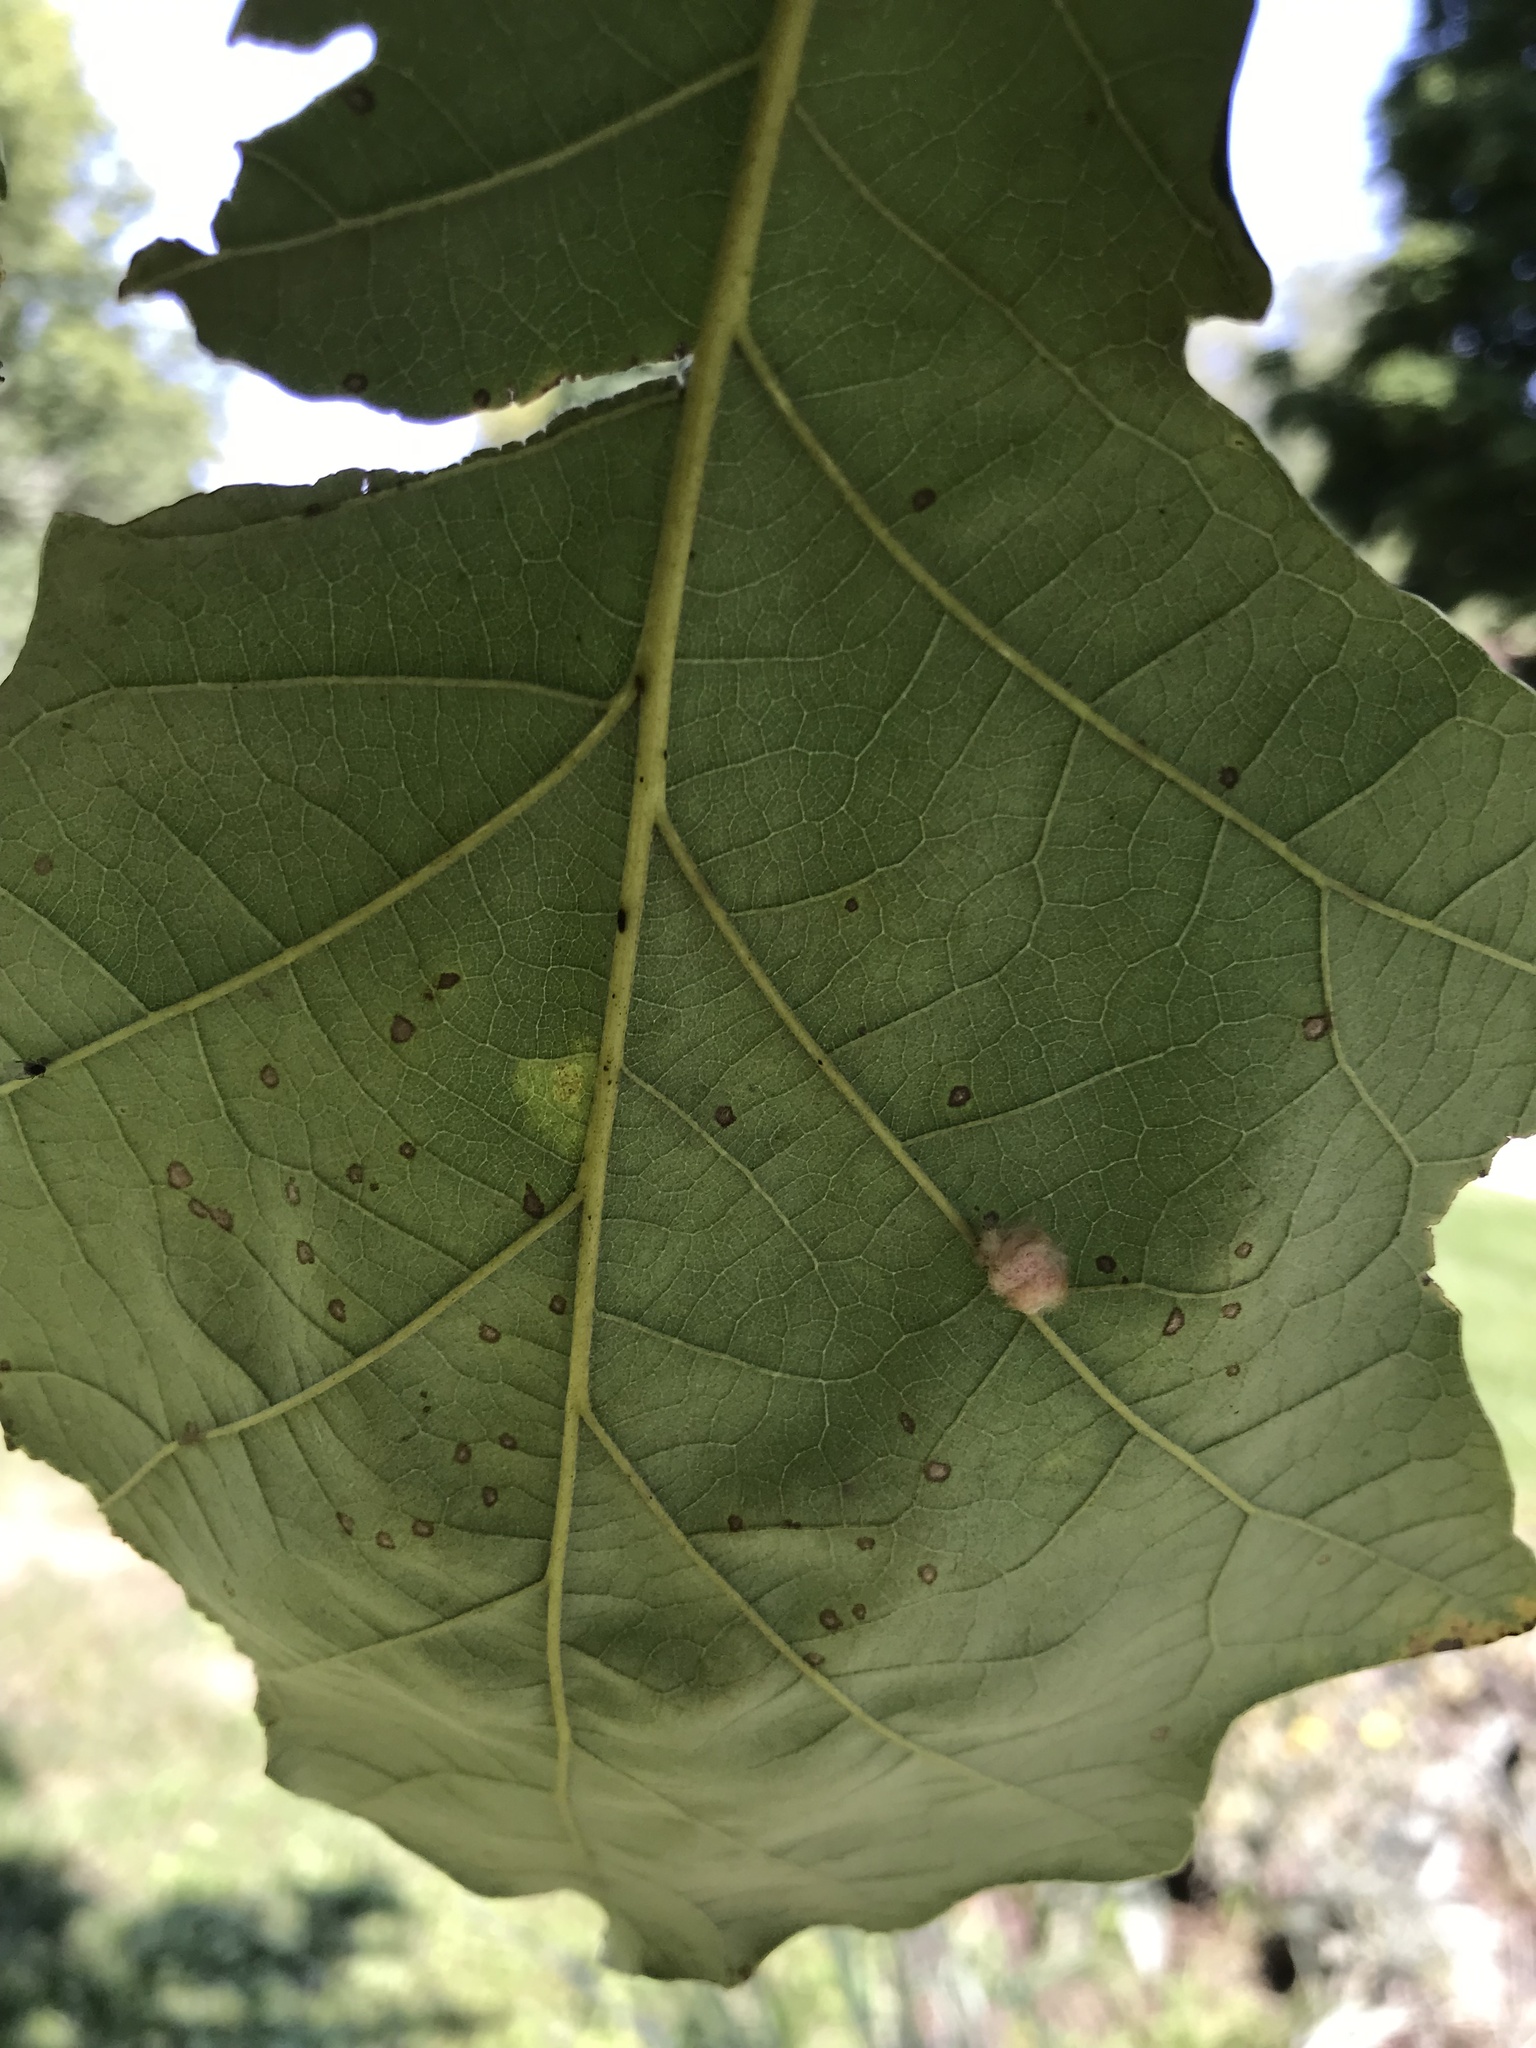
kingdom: Animalia
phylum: Arthropoda
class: Insecta
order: Hymenoptera
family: Cynipidae
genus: Andricus
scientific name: Andricus Druon ignotum
